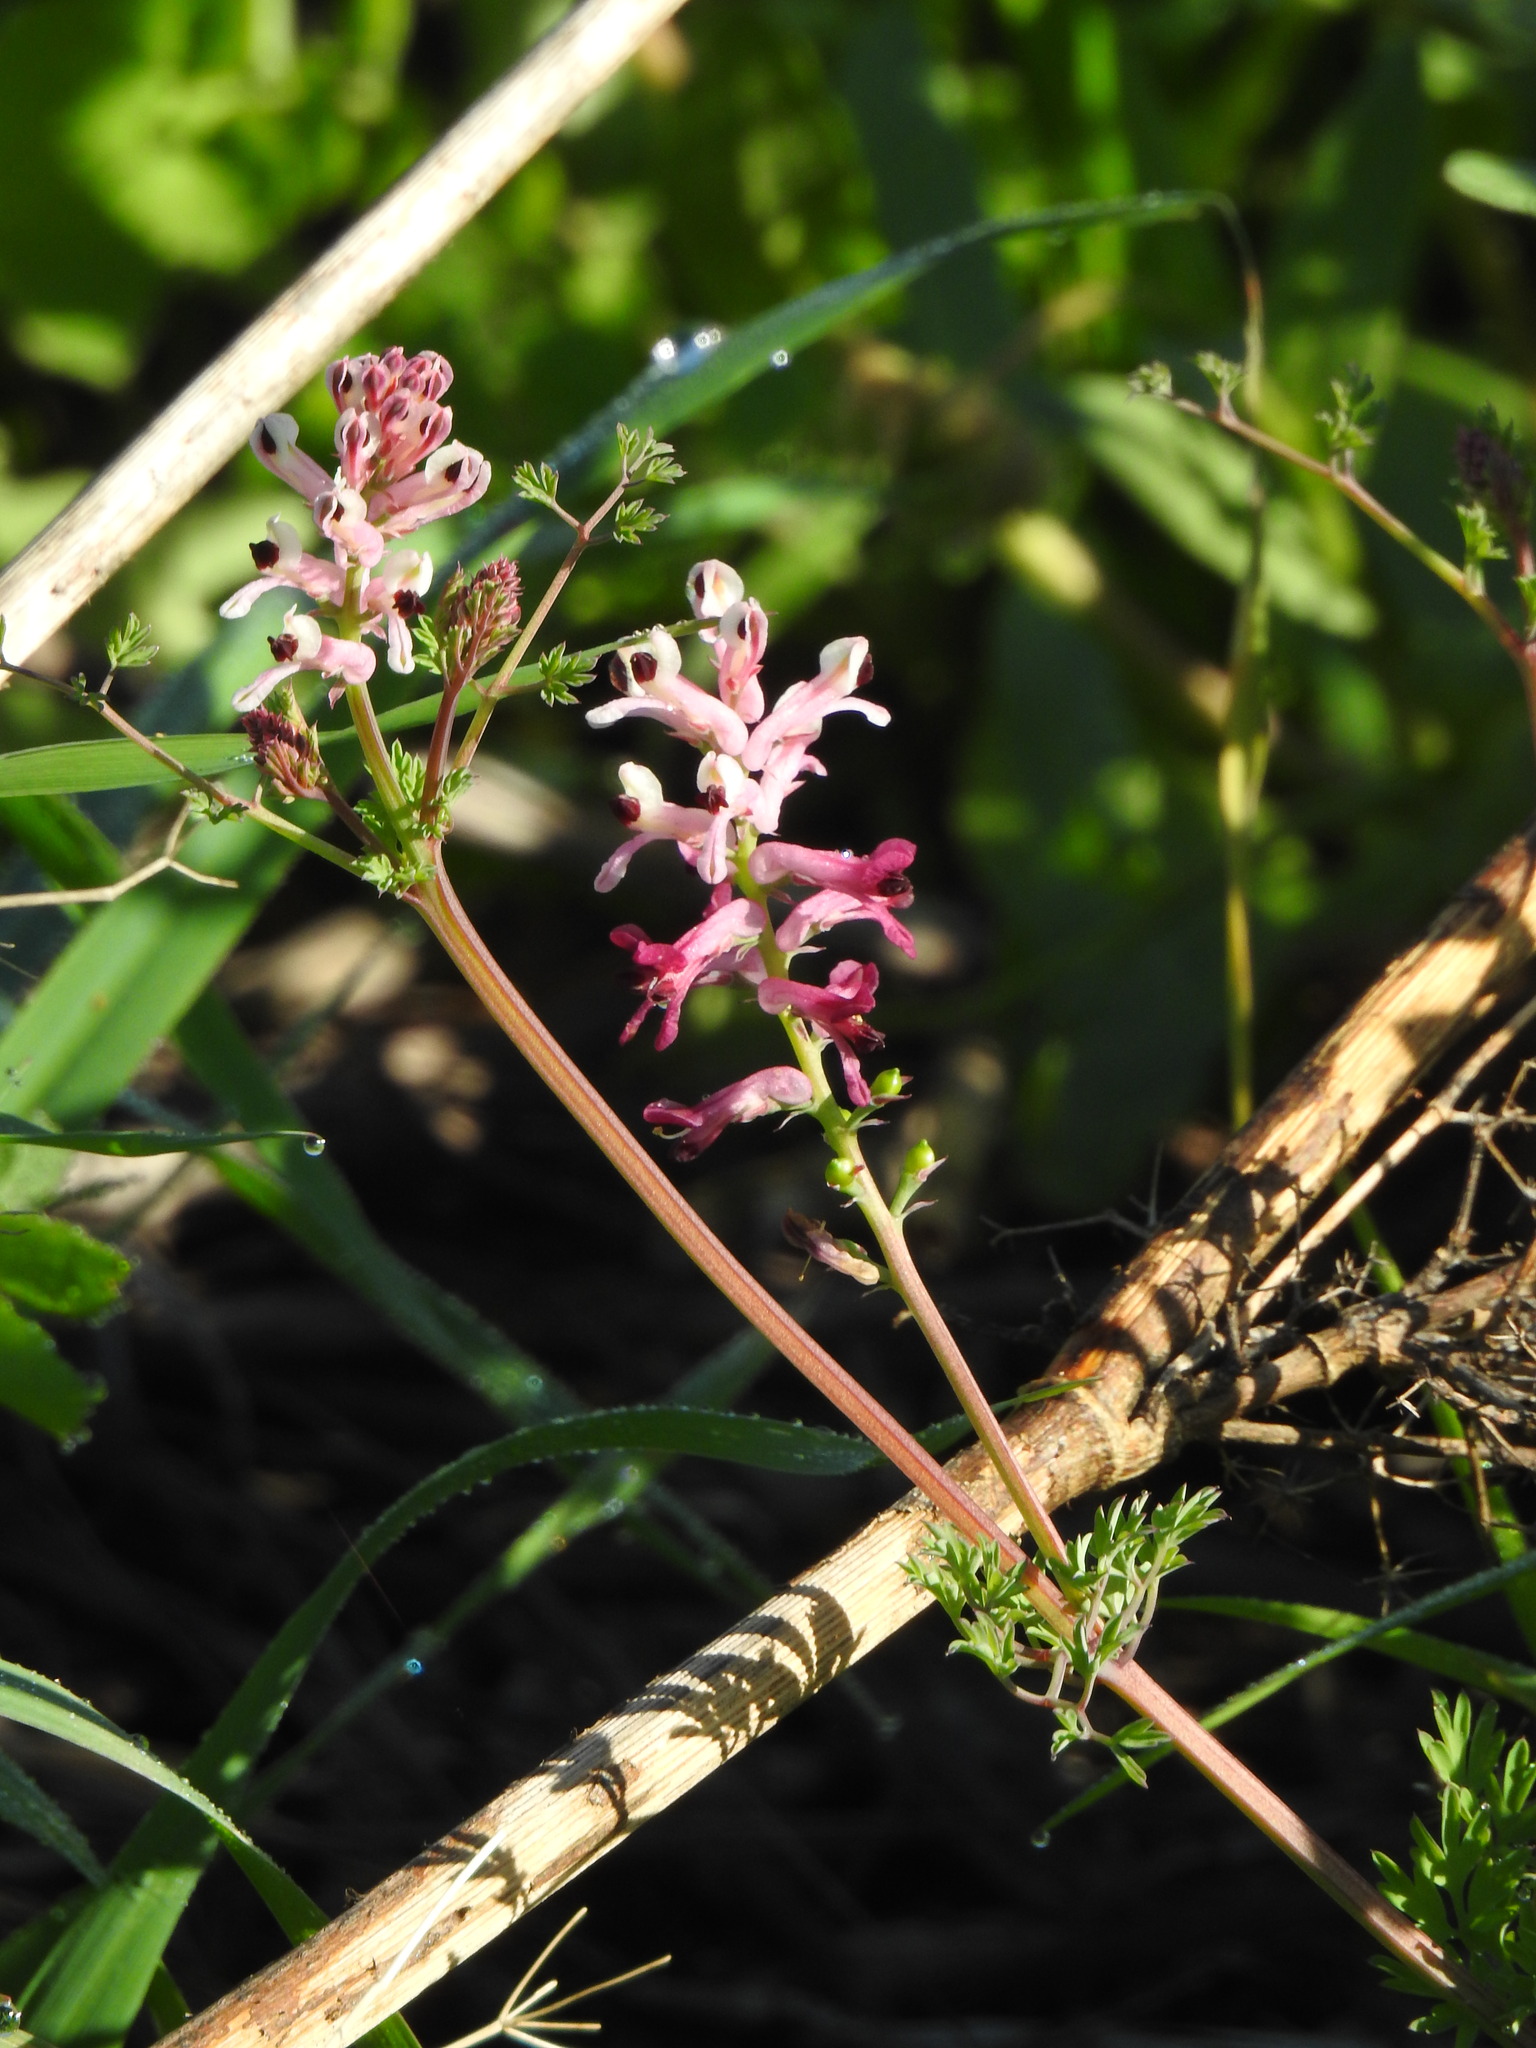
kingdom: Plantae
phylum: Tracheophyta
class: Magnoliopsida
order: Ranunculales
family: Papaveraceae
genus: Fumaria
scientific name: Fumaria agraria
